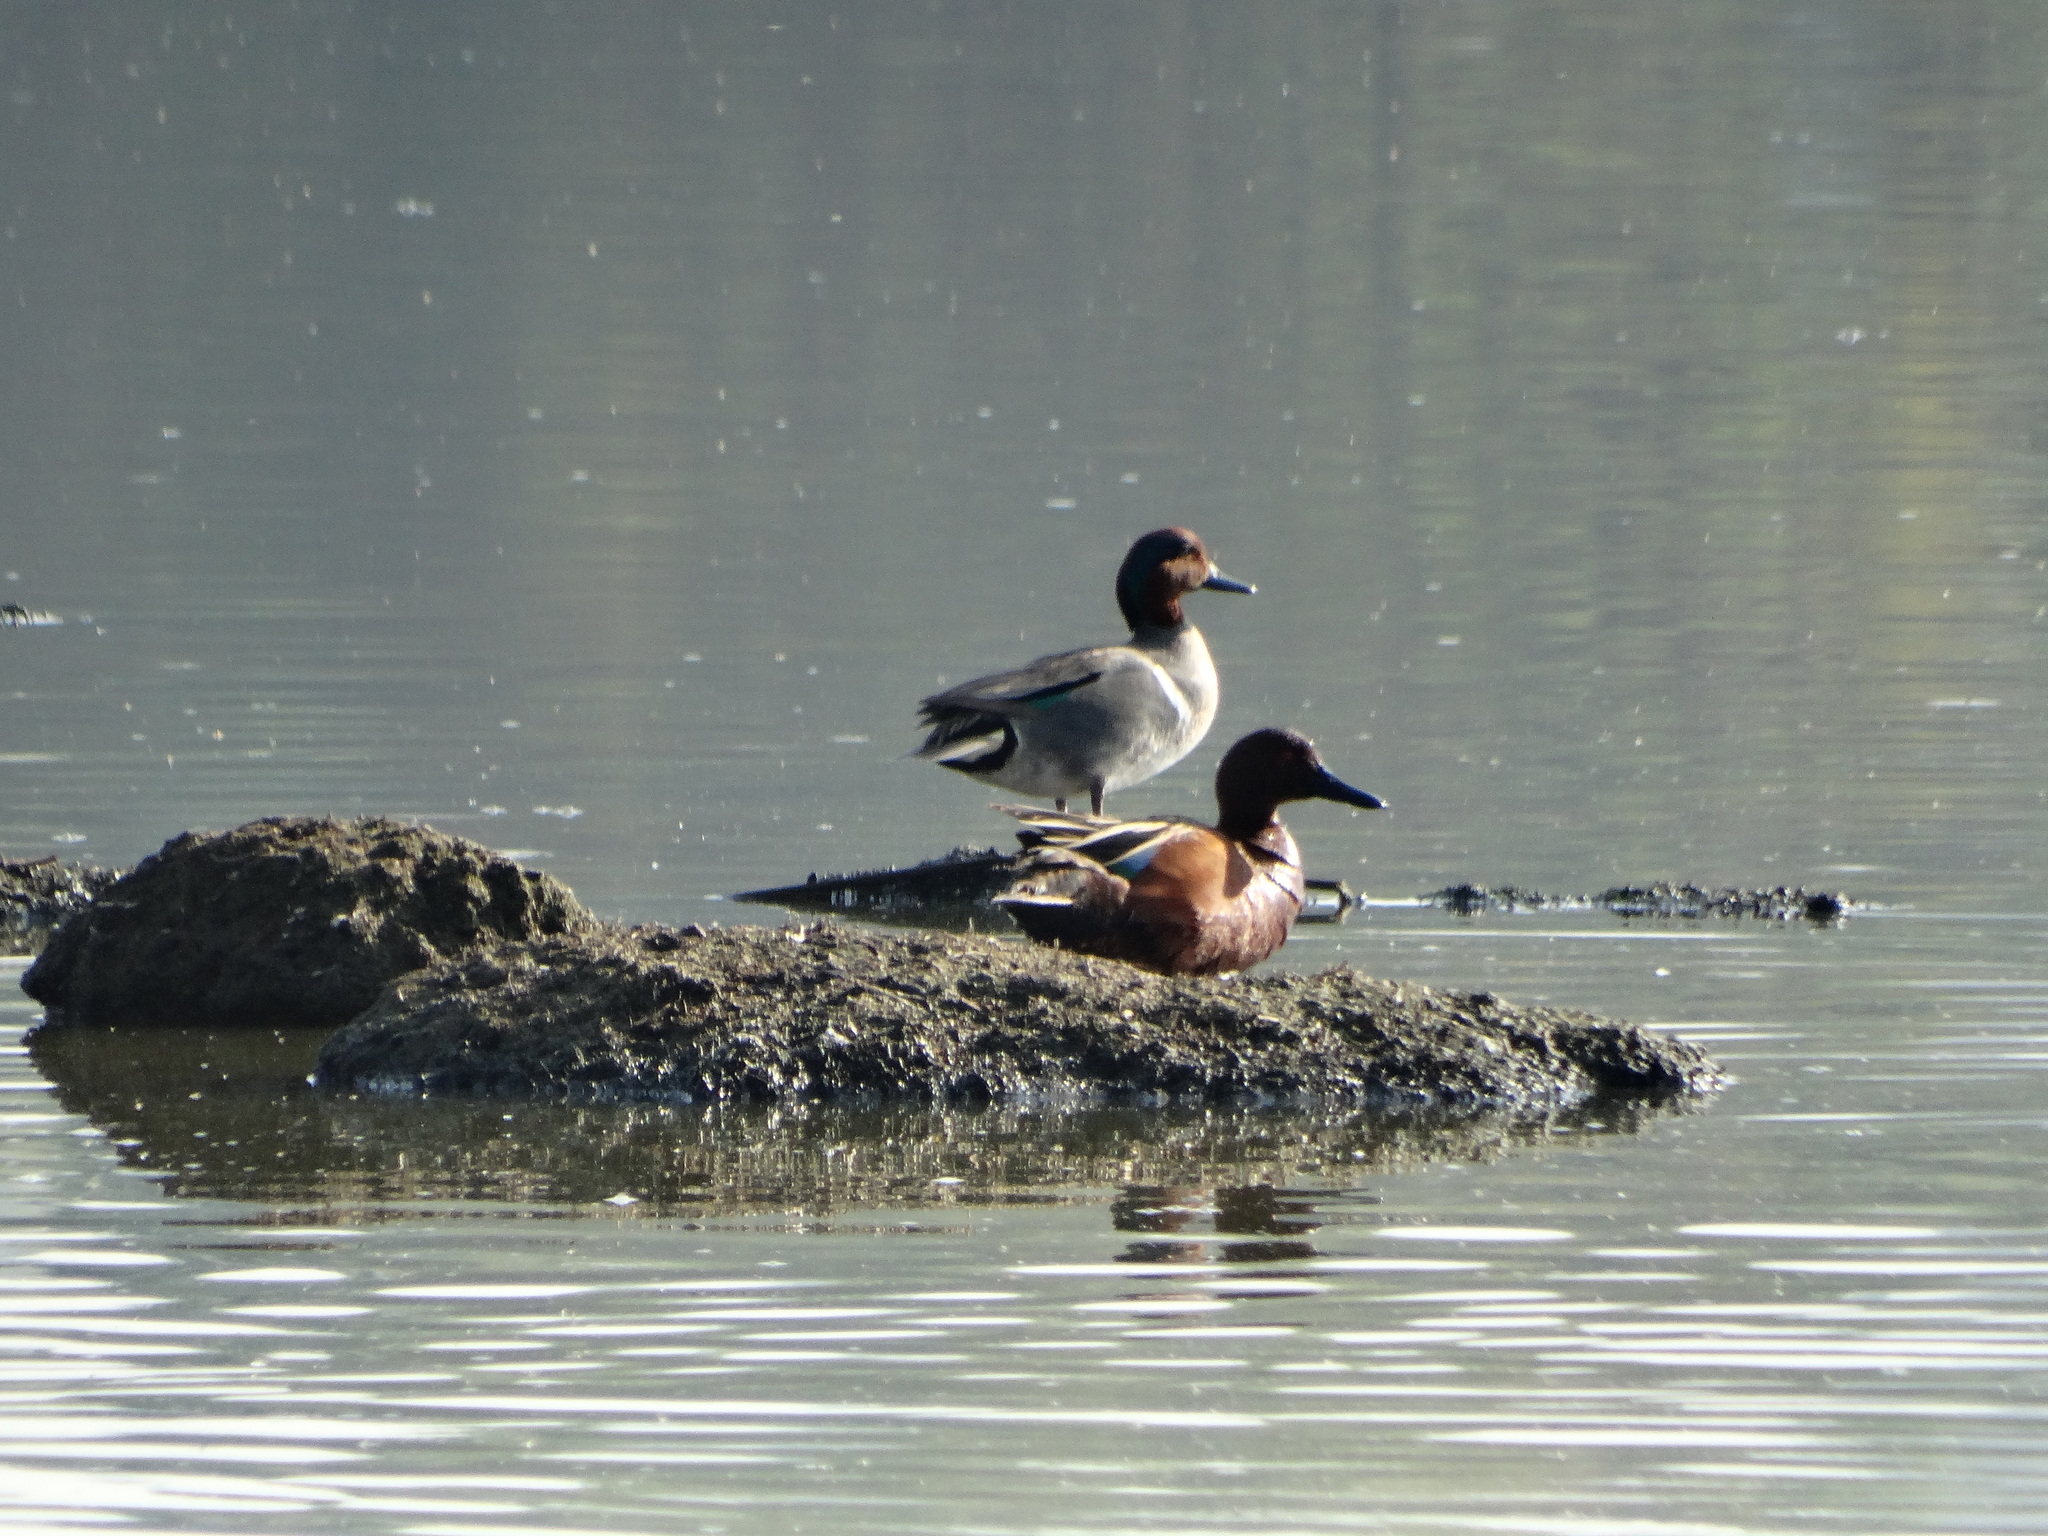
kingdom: Animalia
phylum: Chordata
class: Aves
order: Anseriformes
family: Anatidae
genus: Spatula
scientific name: Spatula cyanoptera
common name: Cinnamon teal
